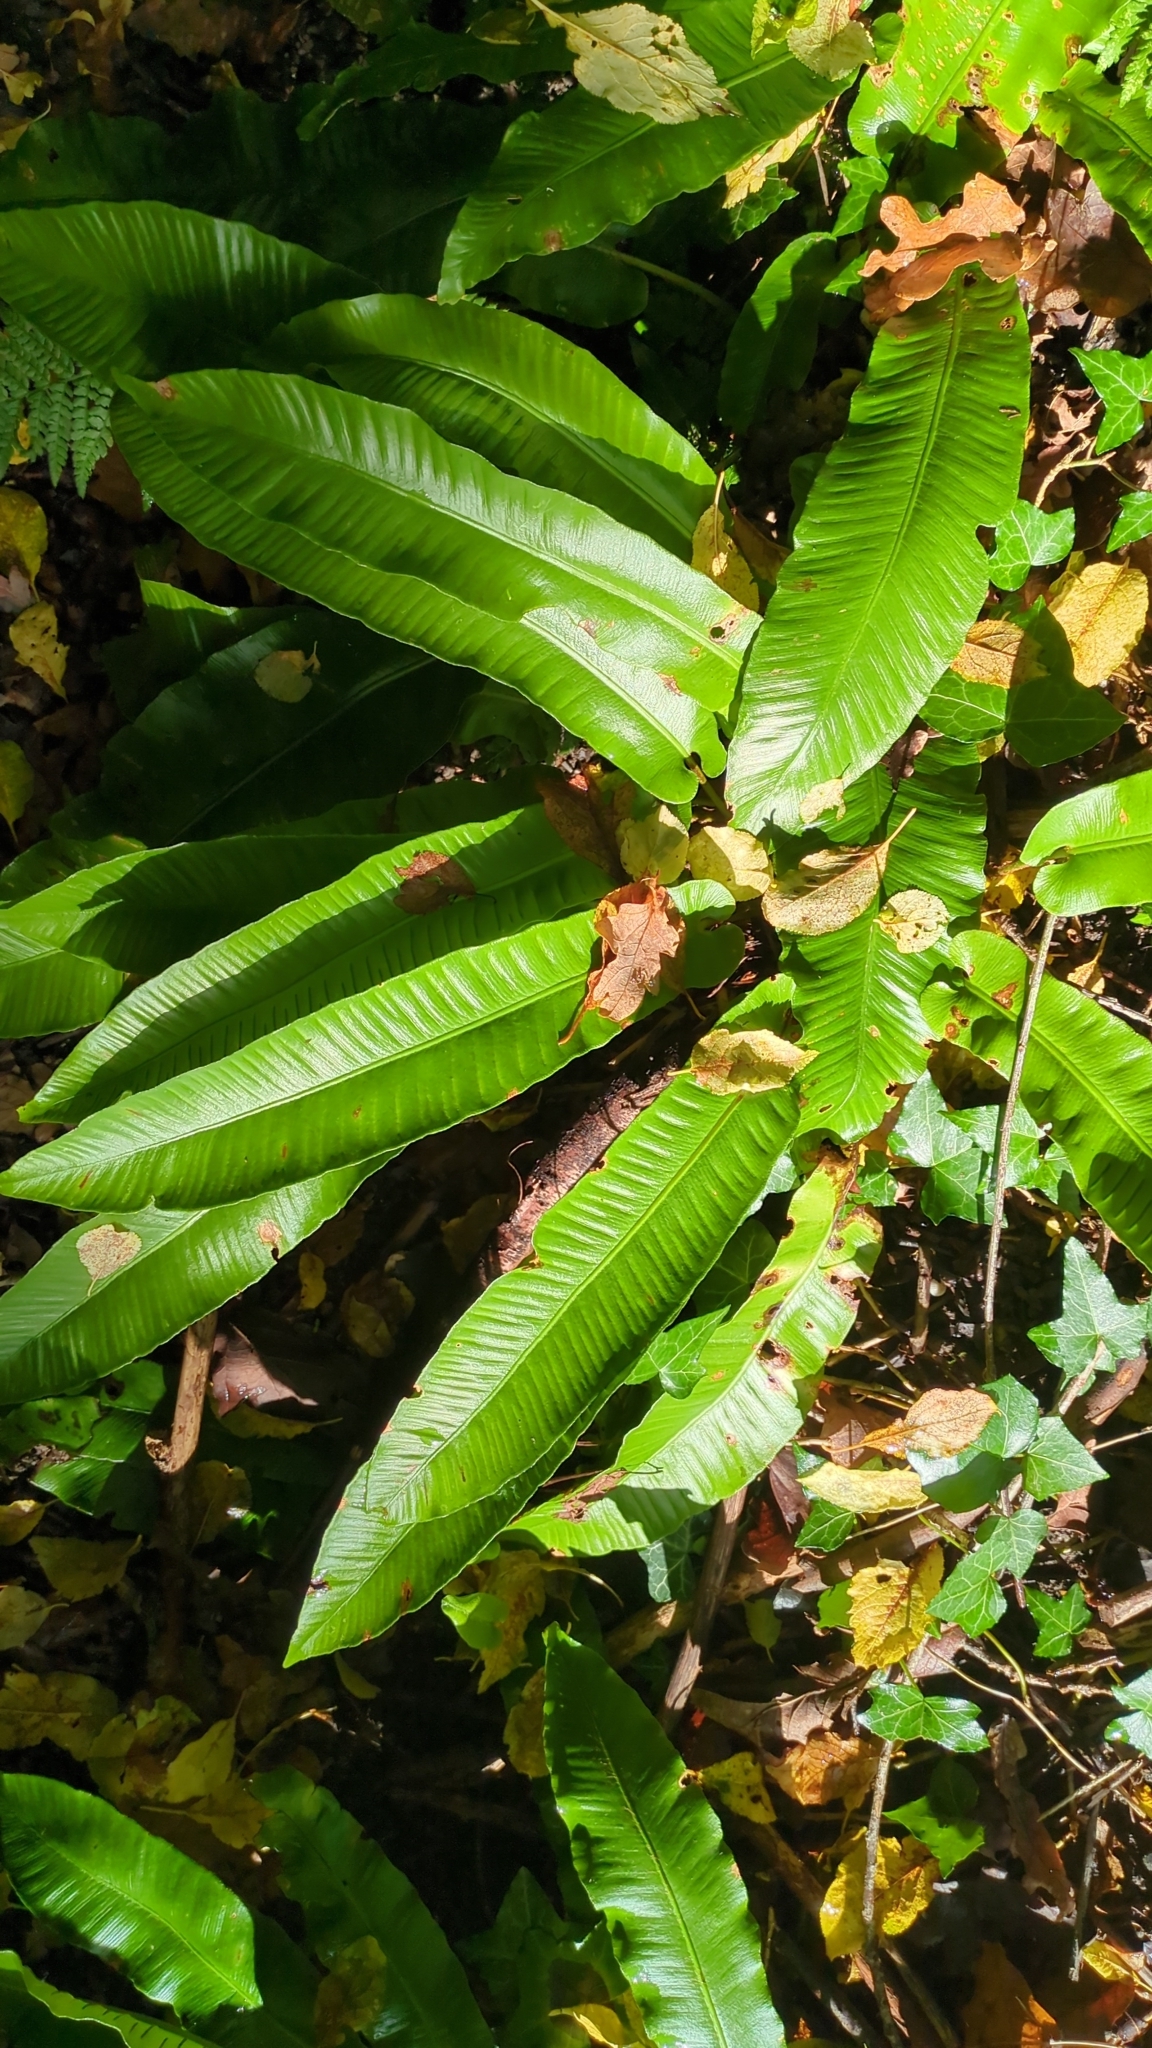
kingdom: Plantae
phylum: Tracheophyta
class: Polypodiopsida
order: Polypodiales
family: Aspleniaceae
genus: Asplenium
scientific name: Asplenium scolopendrium
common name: Hart's-tongue fern
